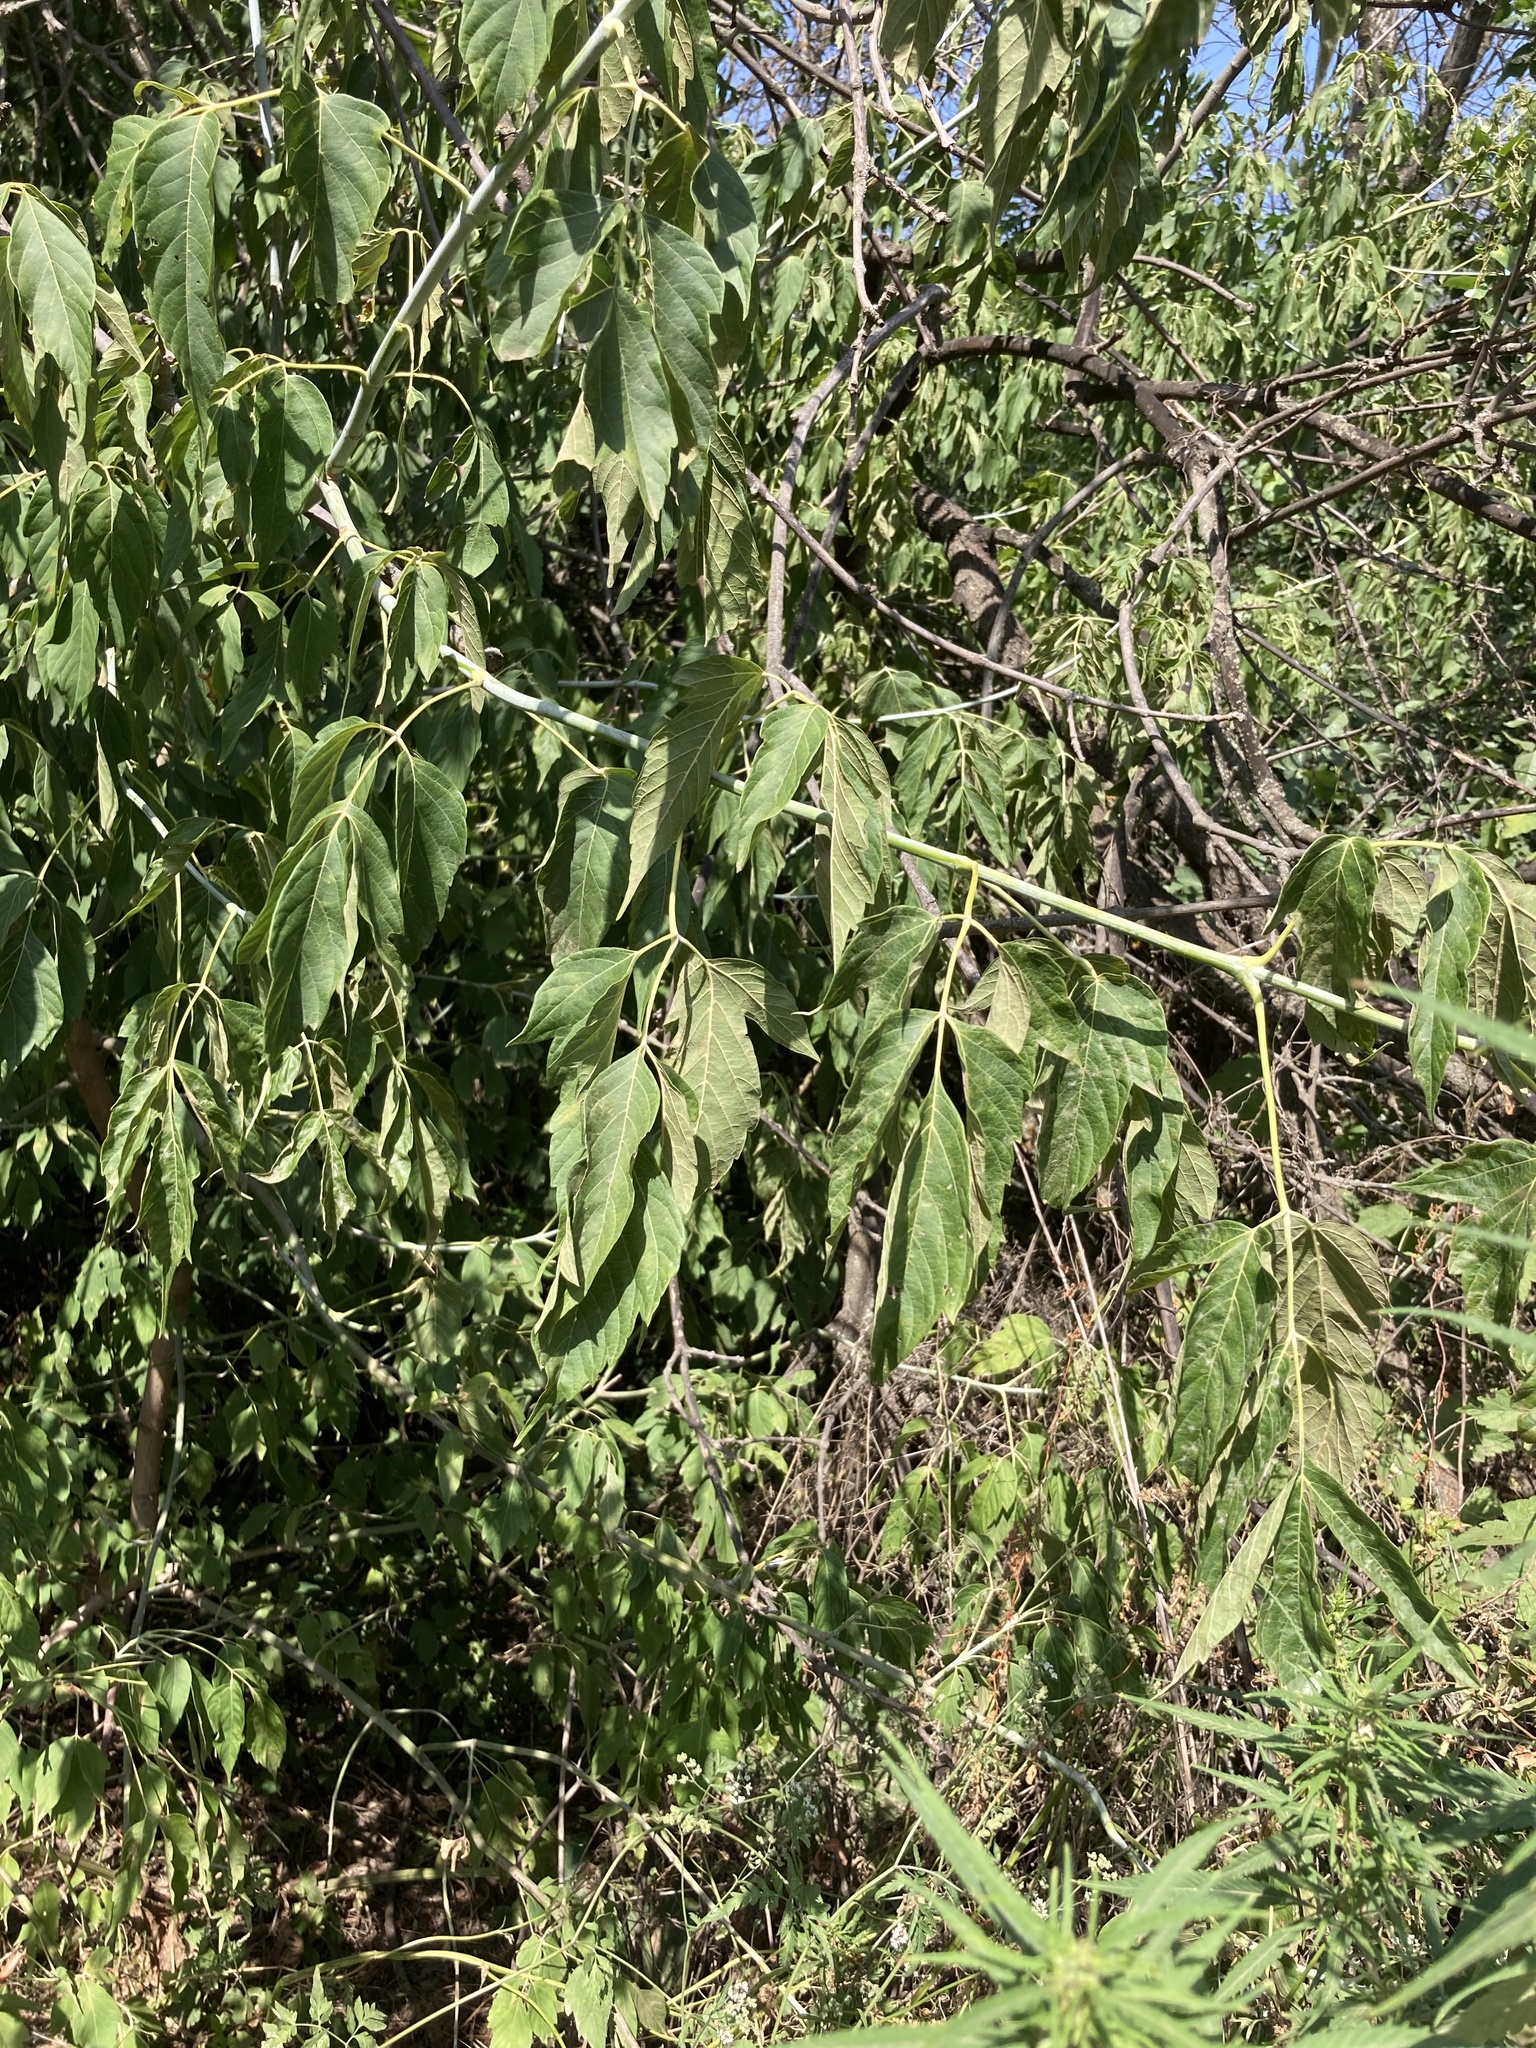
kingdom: Plantae
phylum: Tracheophyta
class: Magnoliopsida
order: Sapindales
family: Sapindaceae
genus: Acer
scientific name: Acer negundo
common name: Ashleaf maple
